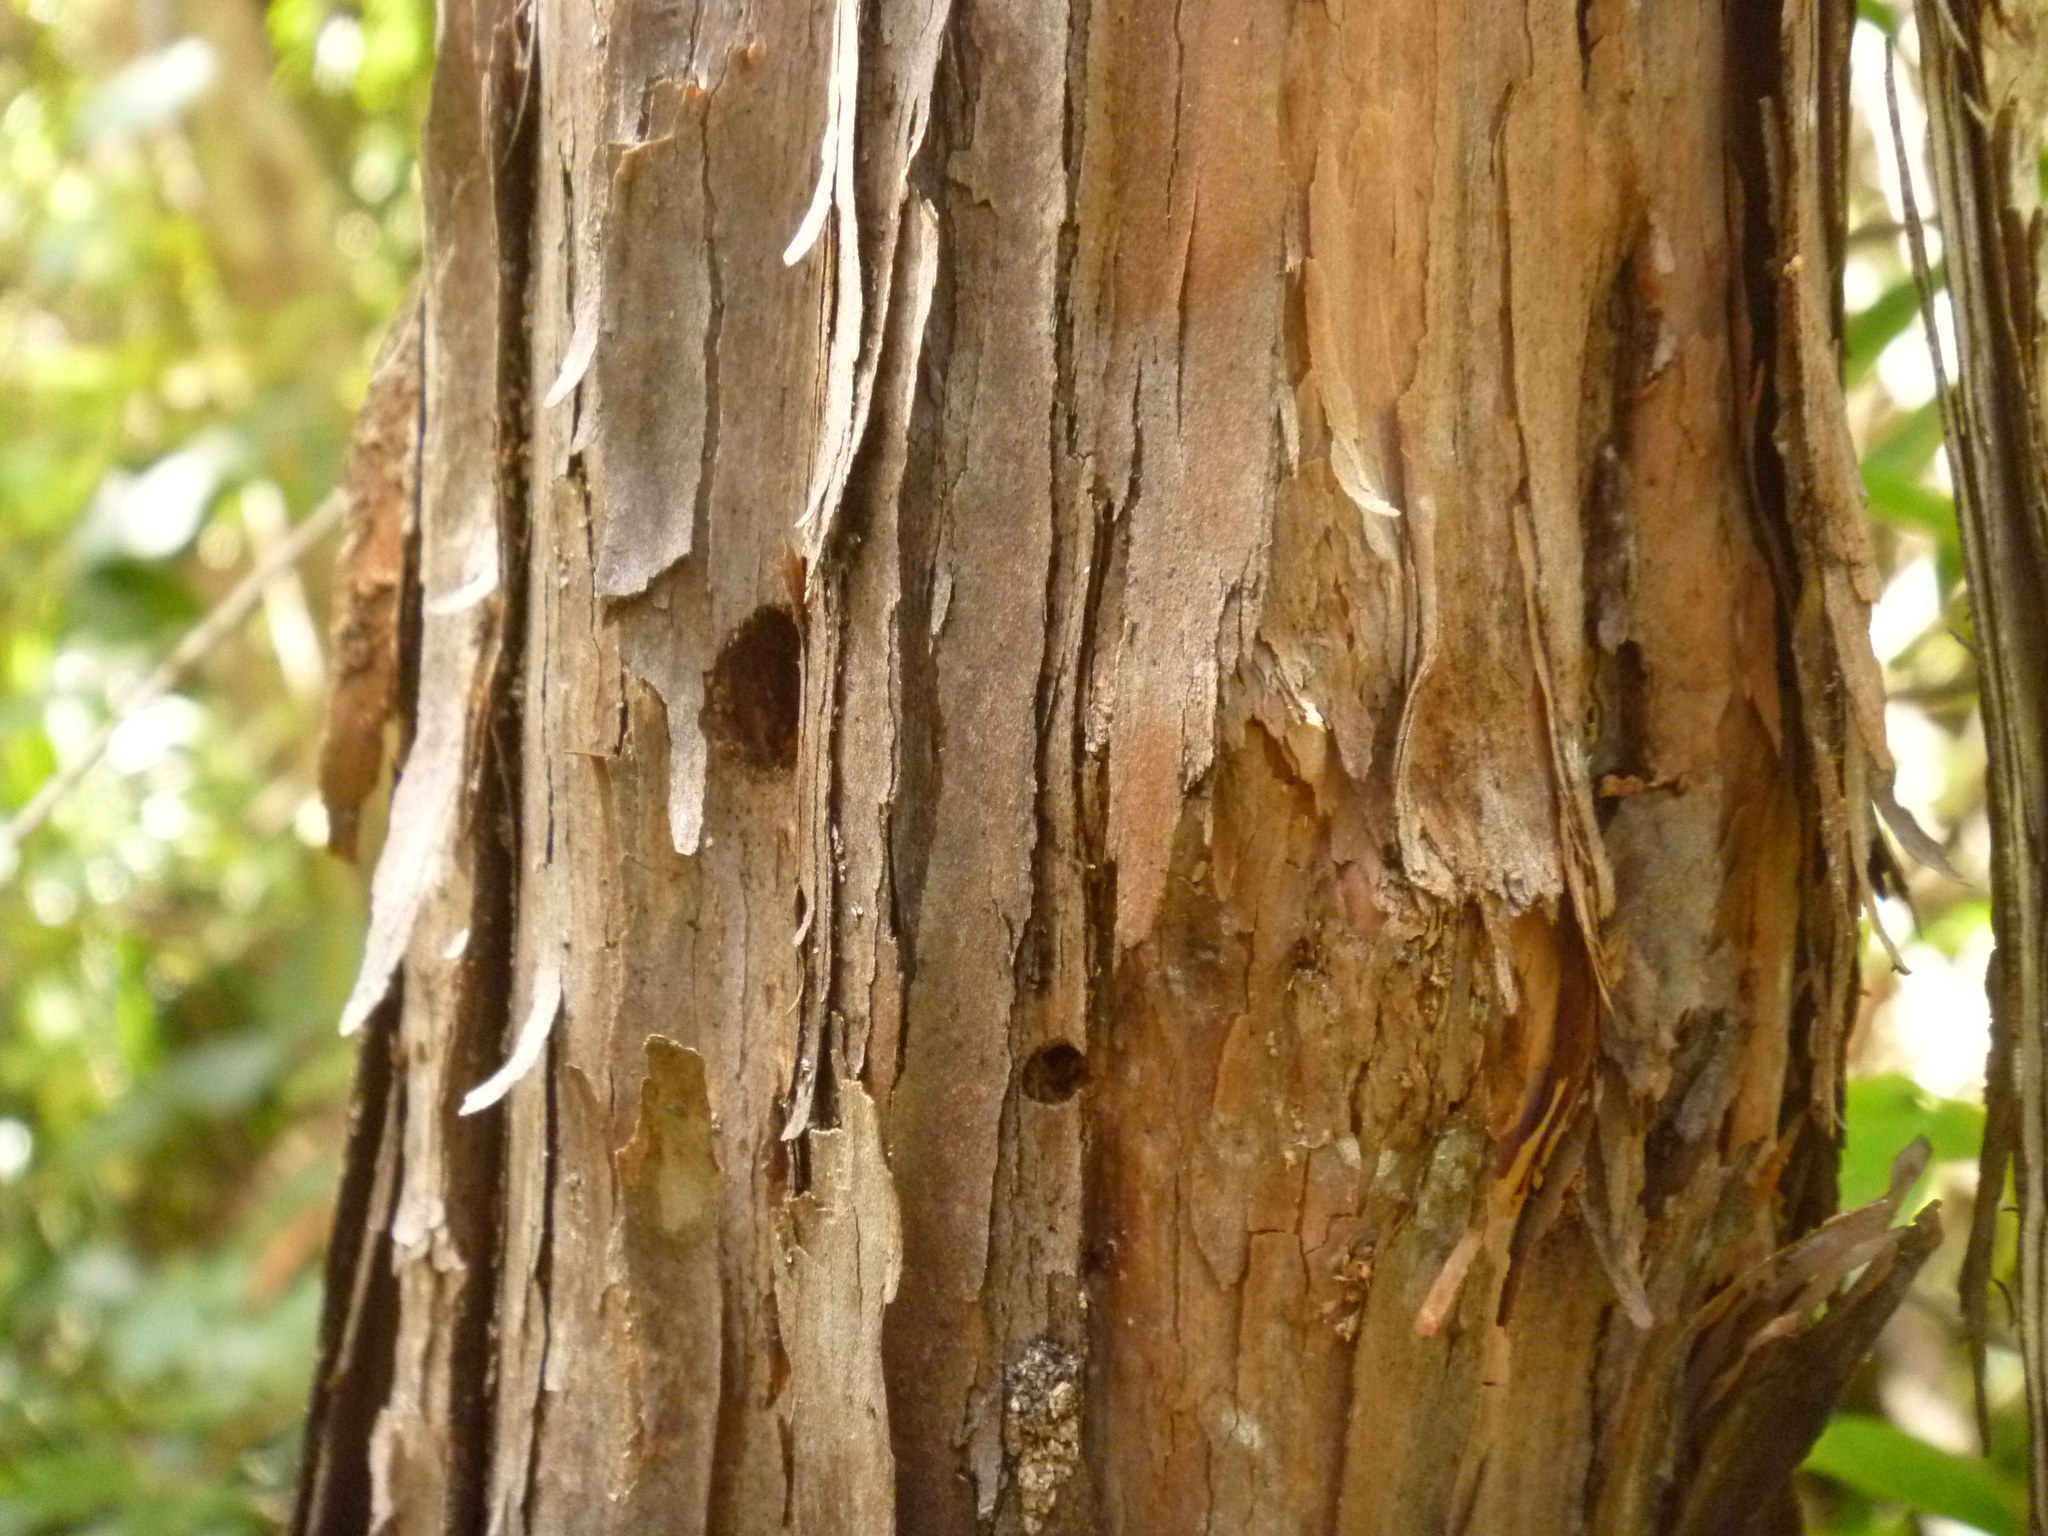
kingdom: Plantae
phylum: Tracheophyta
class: Magnoliopsida
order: Myrtales
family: Myrtaceae
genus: Leptospermum
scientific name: Leptospermum scoparium
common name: Broom tea-tree
